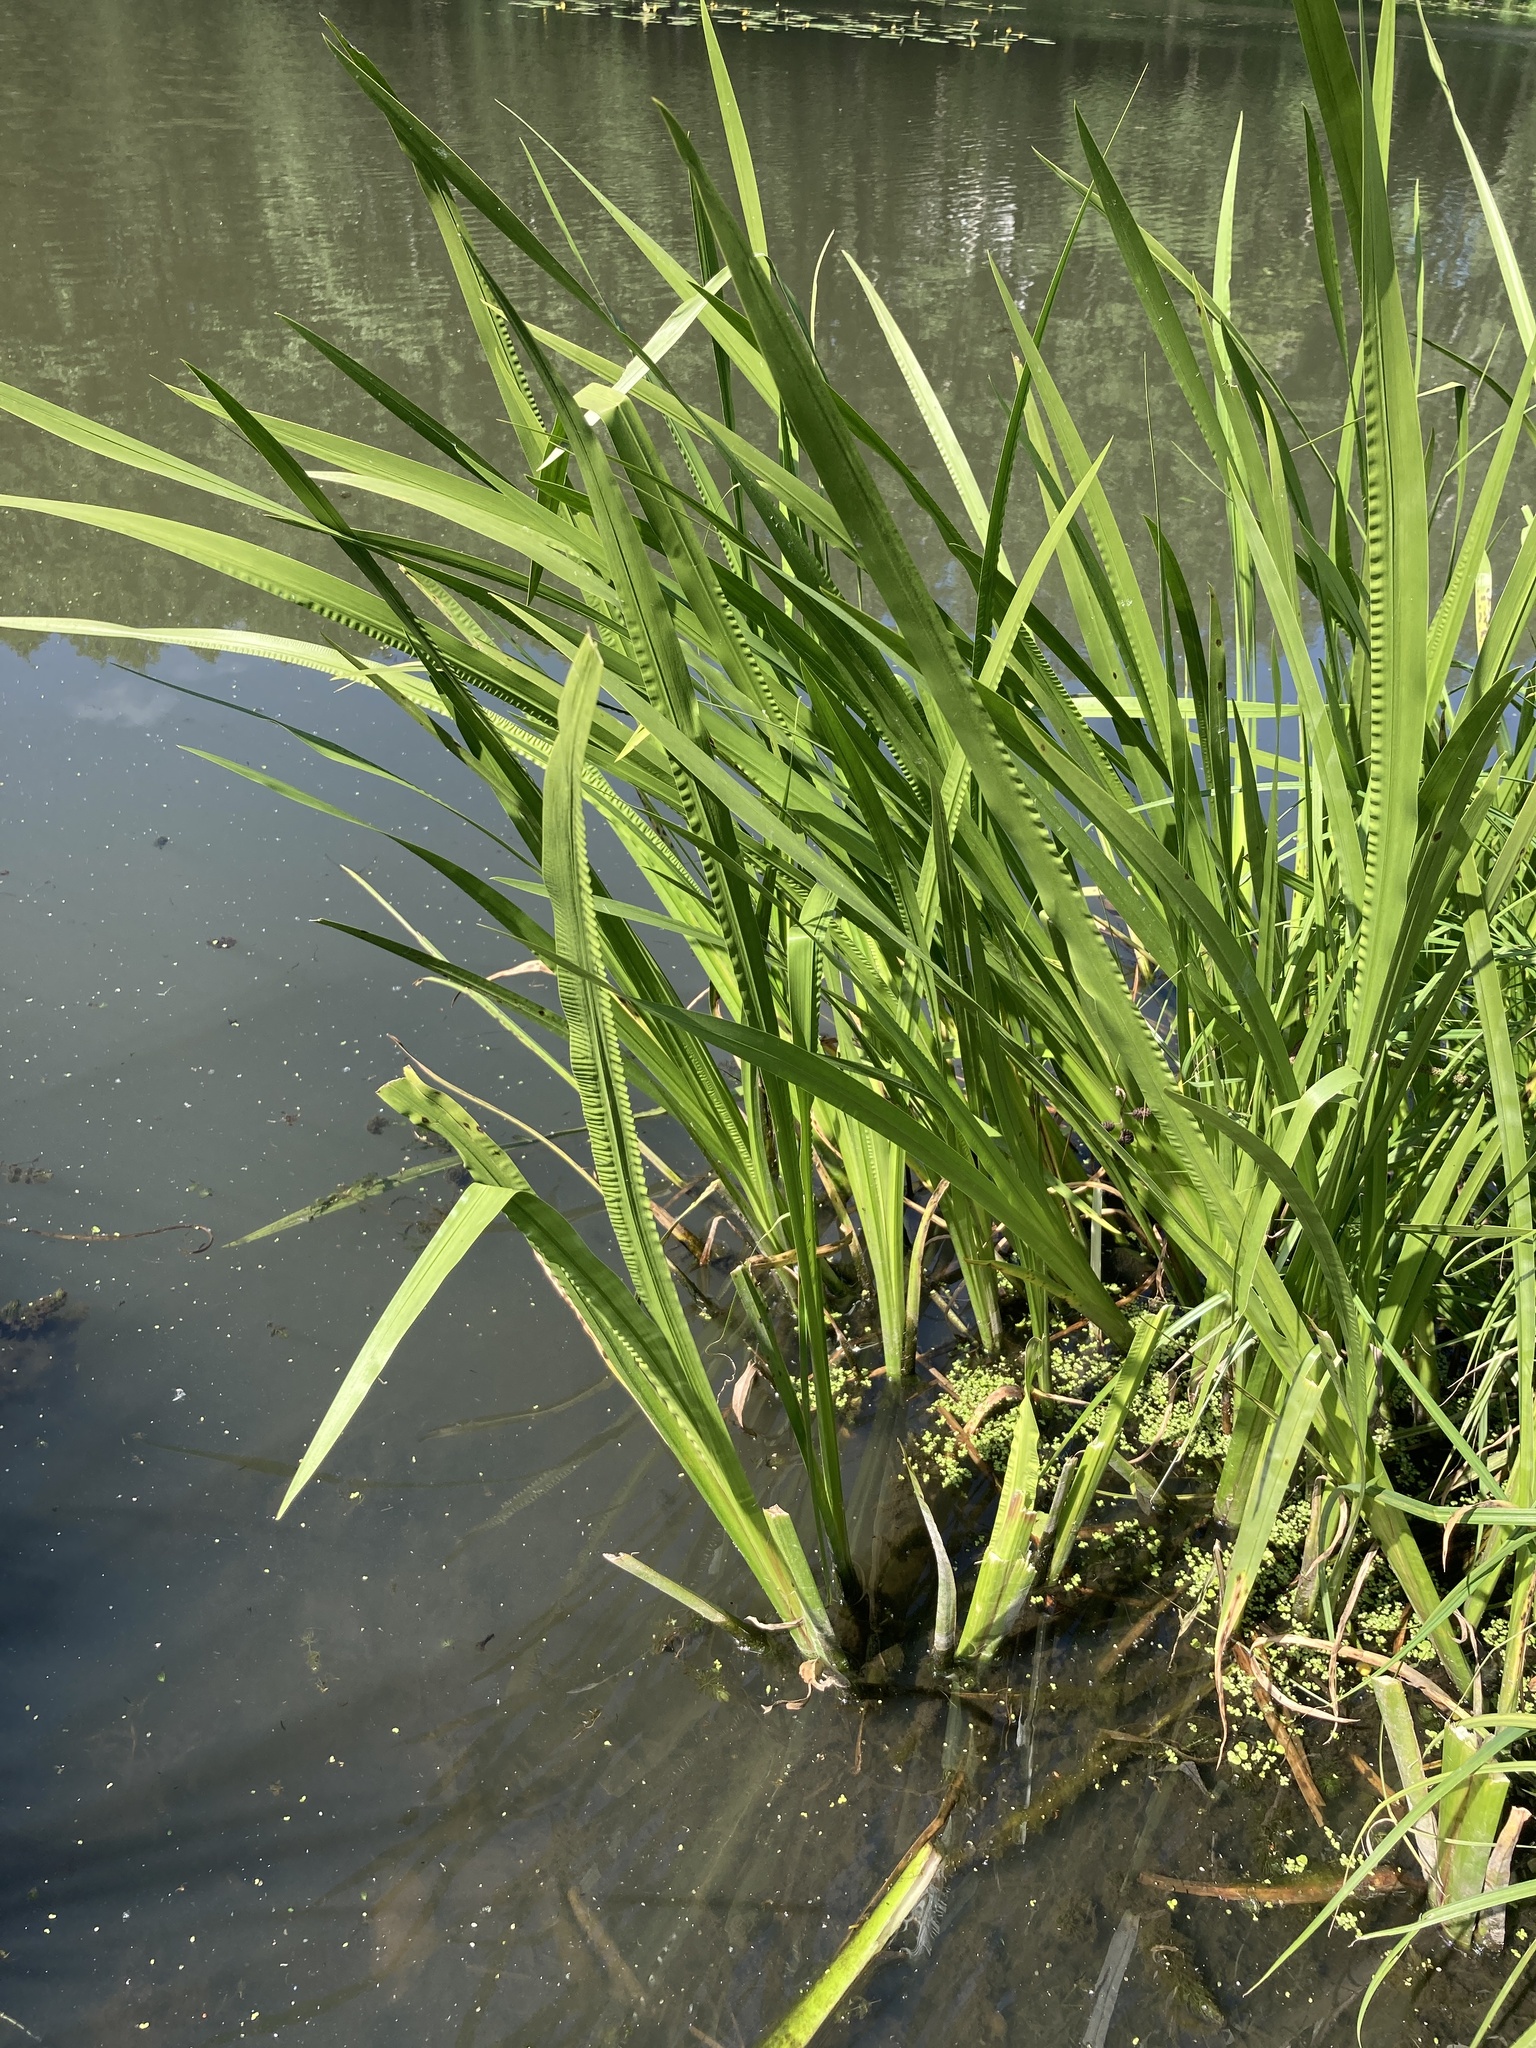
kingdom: Plantae
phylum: Tracheophyta
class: Liliopsida
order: Acorales
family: Acoraceae
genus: Acorus
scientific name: Acorus calamus
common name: Sweet-flag
